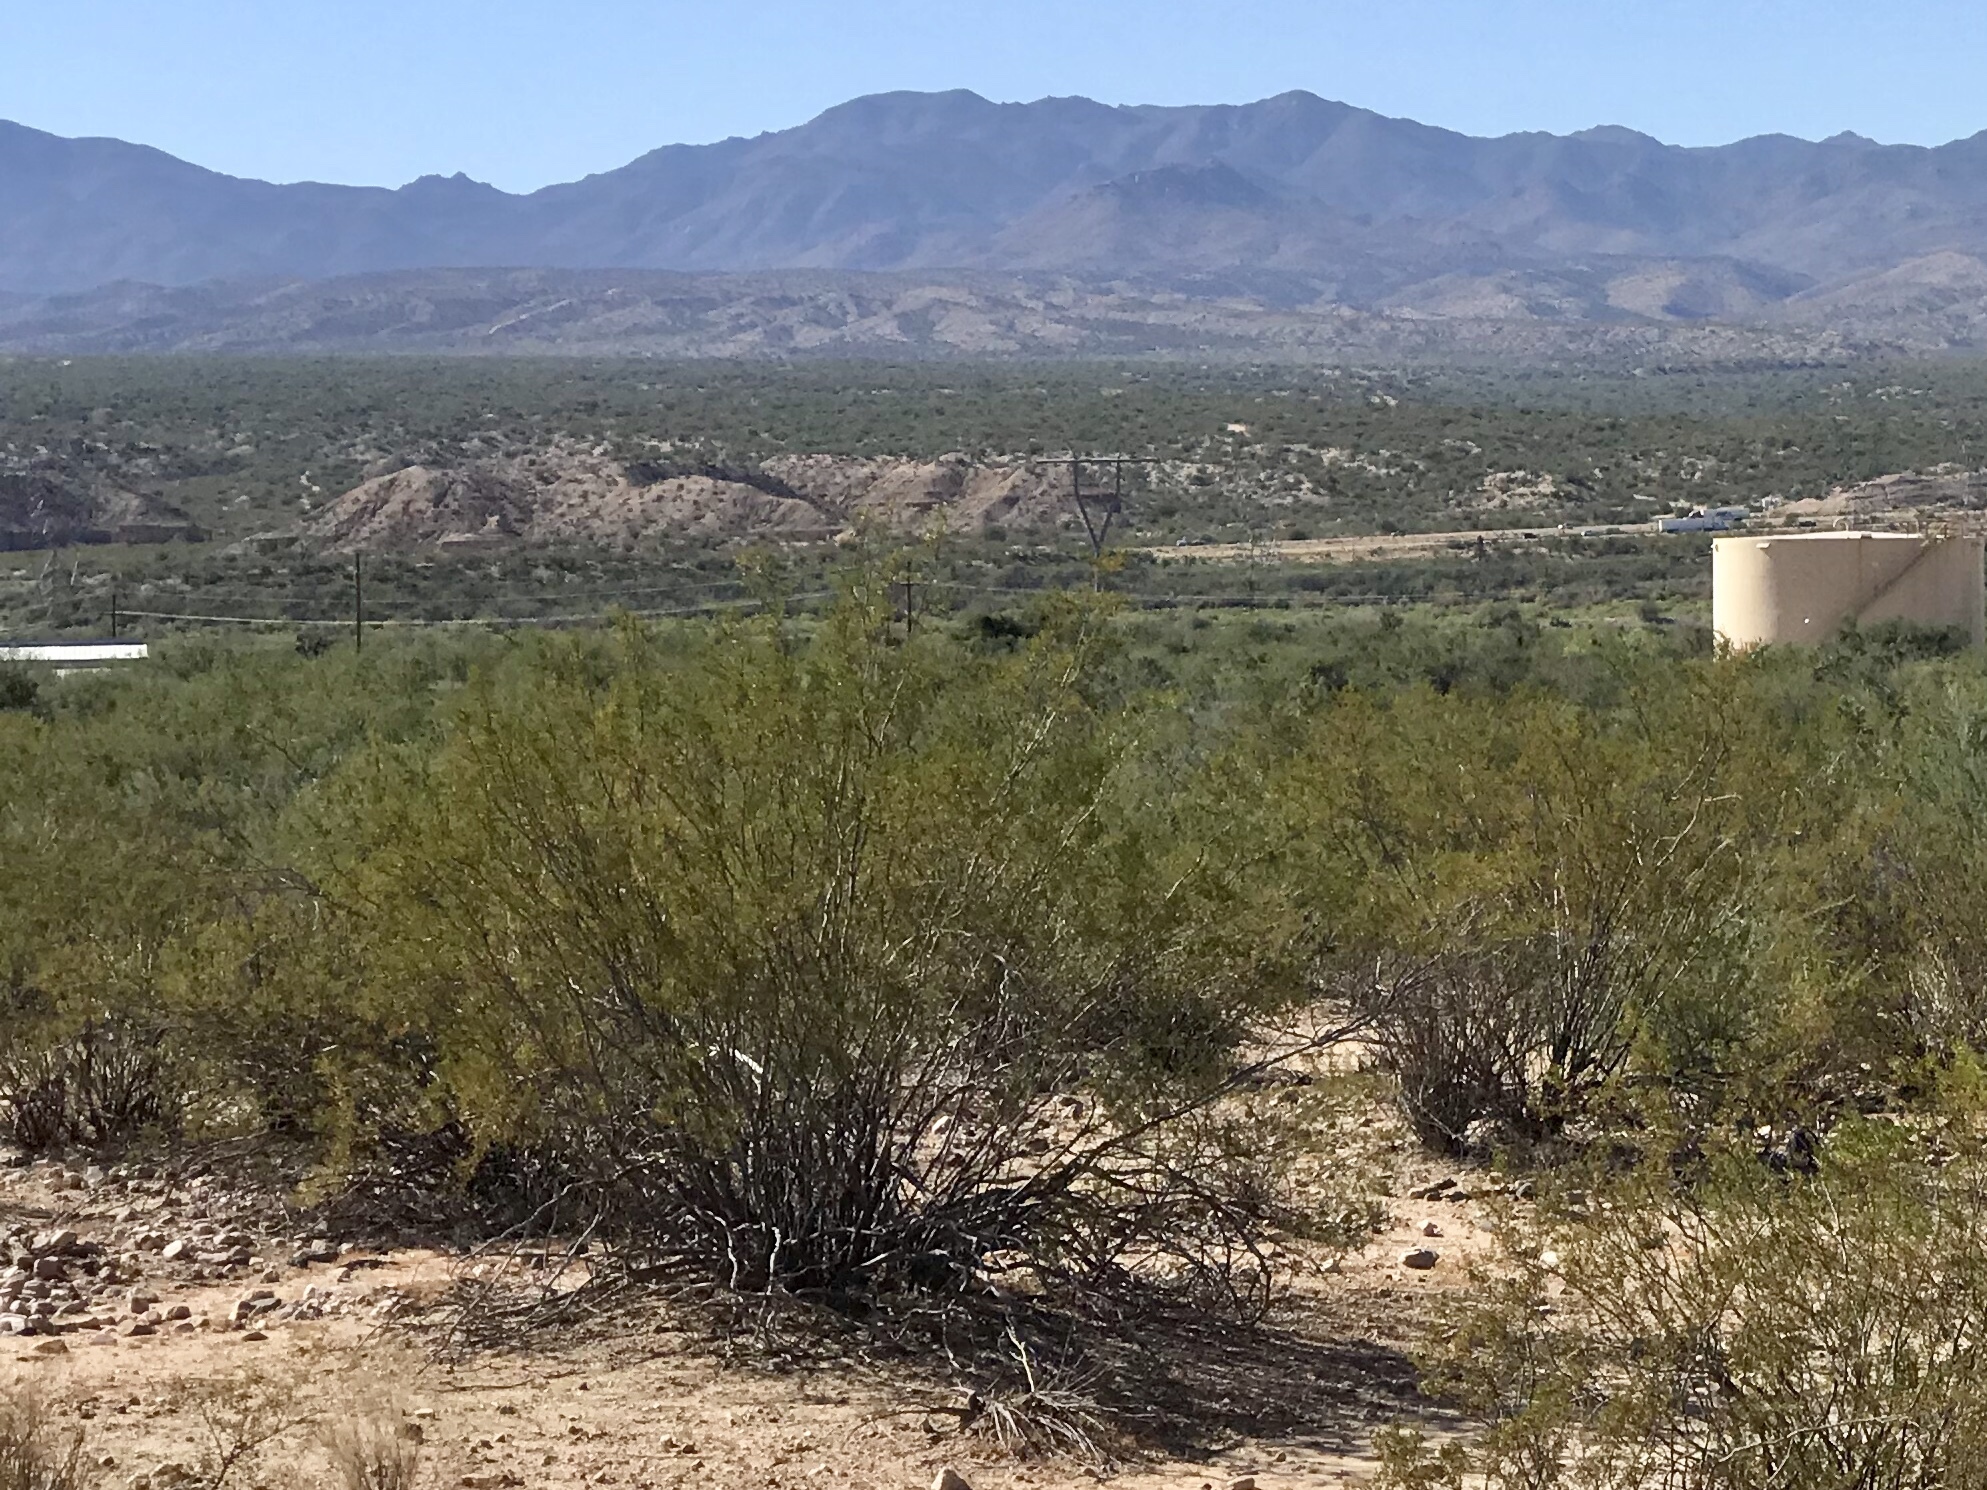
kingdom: Plantae
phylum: Tracheophyta
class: Magnoliopsida
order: Zygophyllales
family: Zygophyllaceae
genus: Larrea
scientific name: Larrea tridentata
